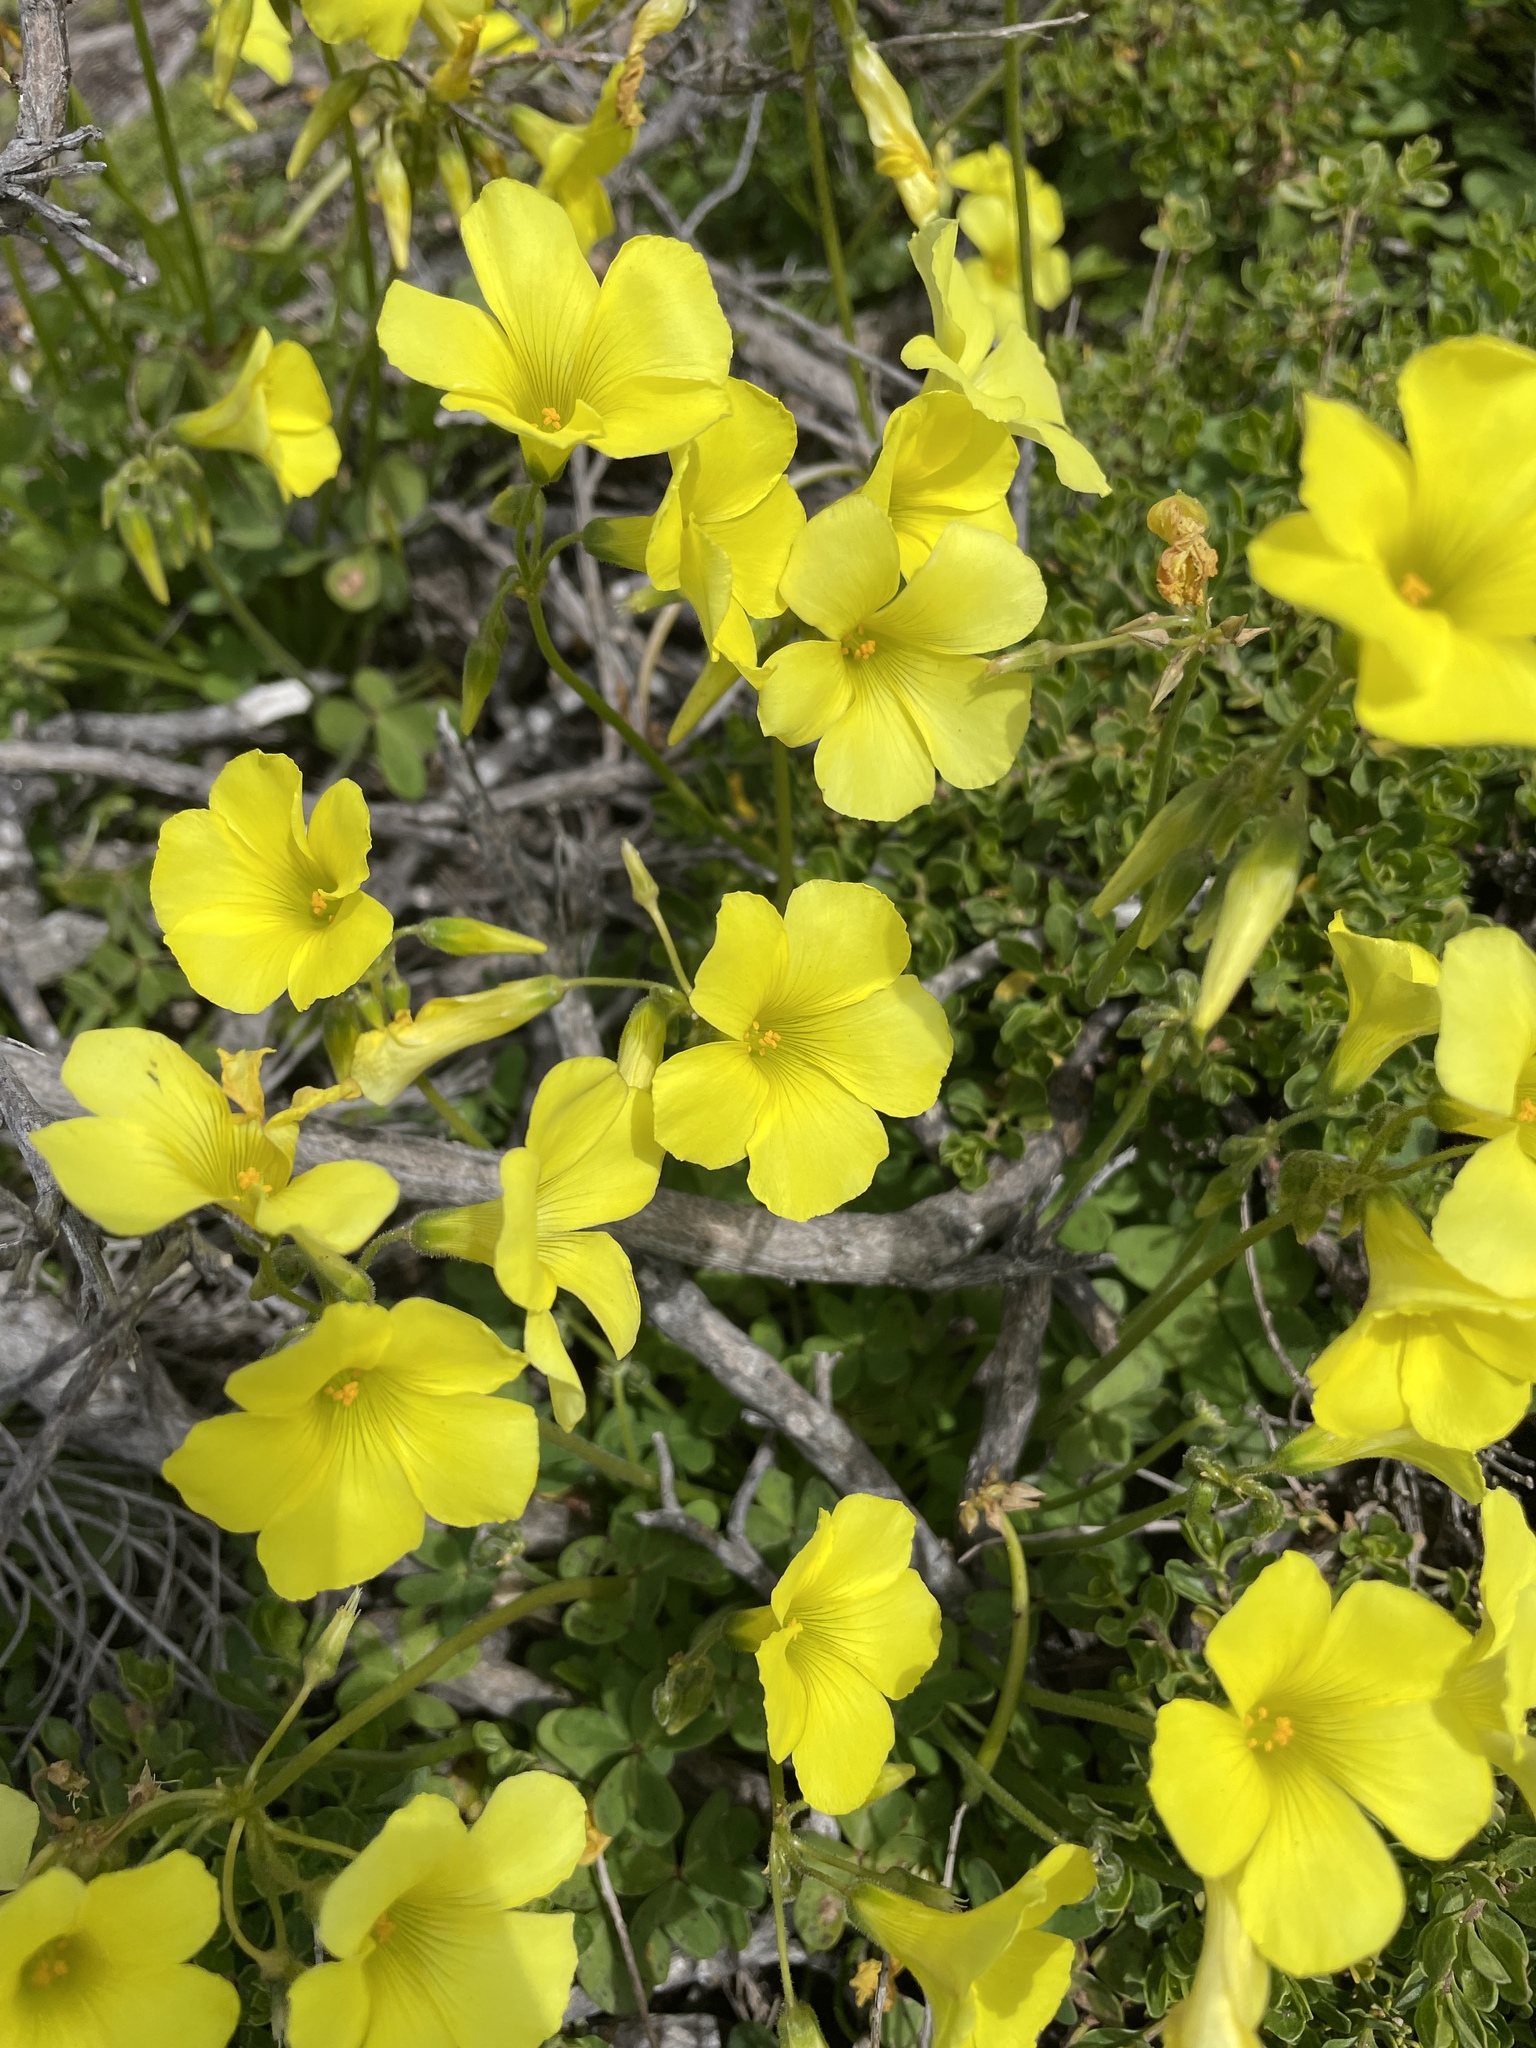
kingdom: Plantae
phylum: Tracheophyta
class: Magnoliopsida
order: Oxalidales
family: Oxalidaceae
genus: Oxalis
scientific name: Oxalis pes-caprae
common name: Bermuda-buttercup
